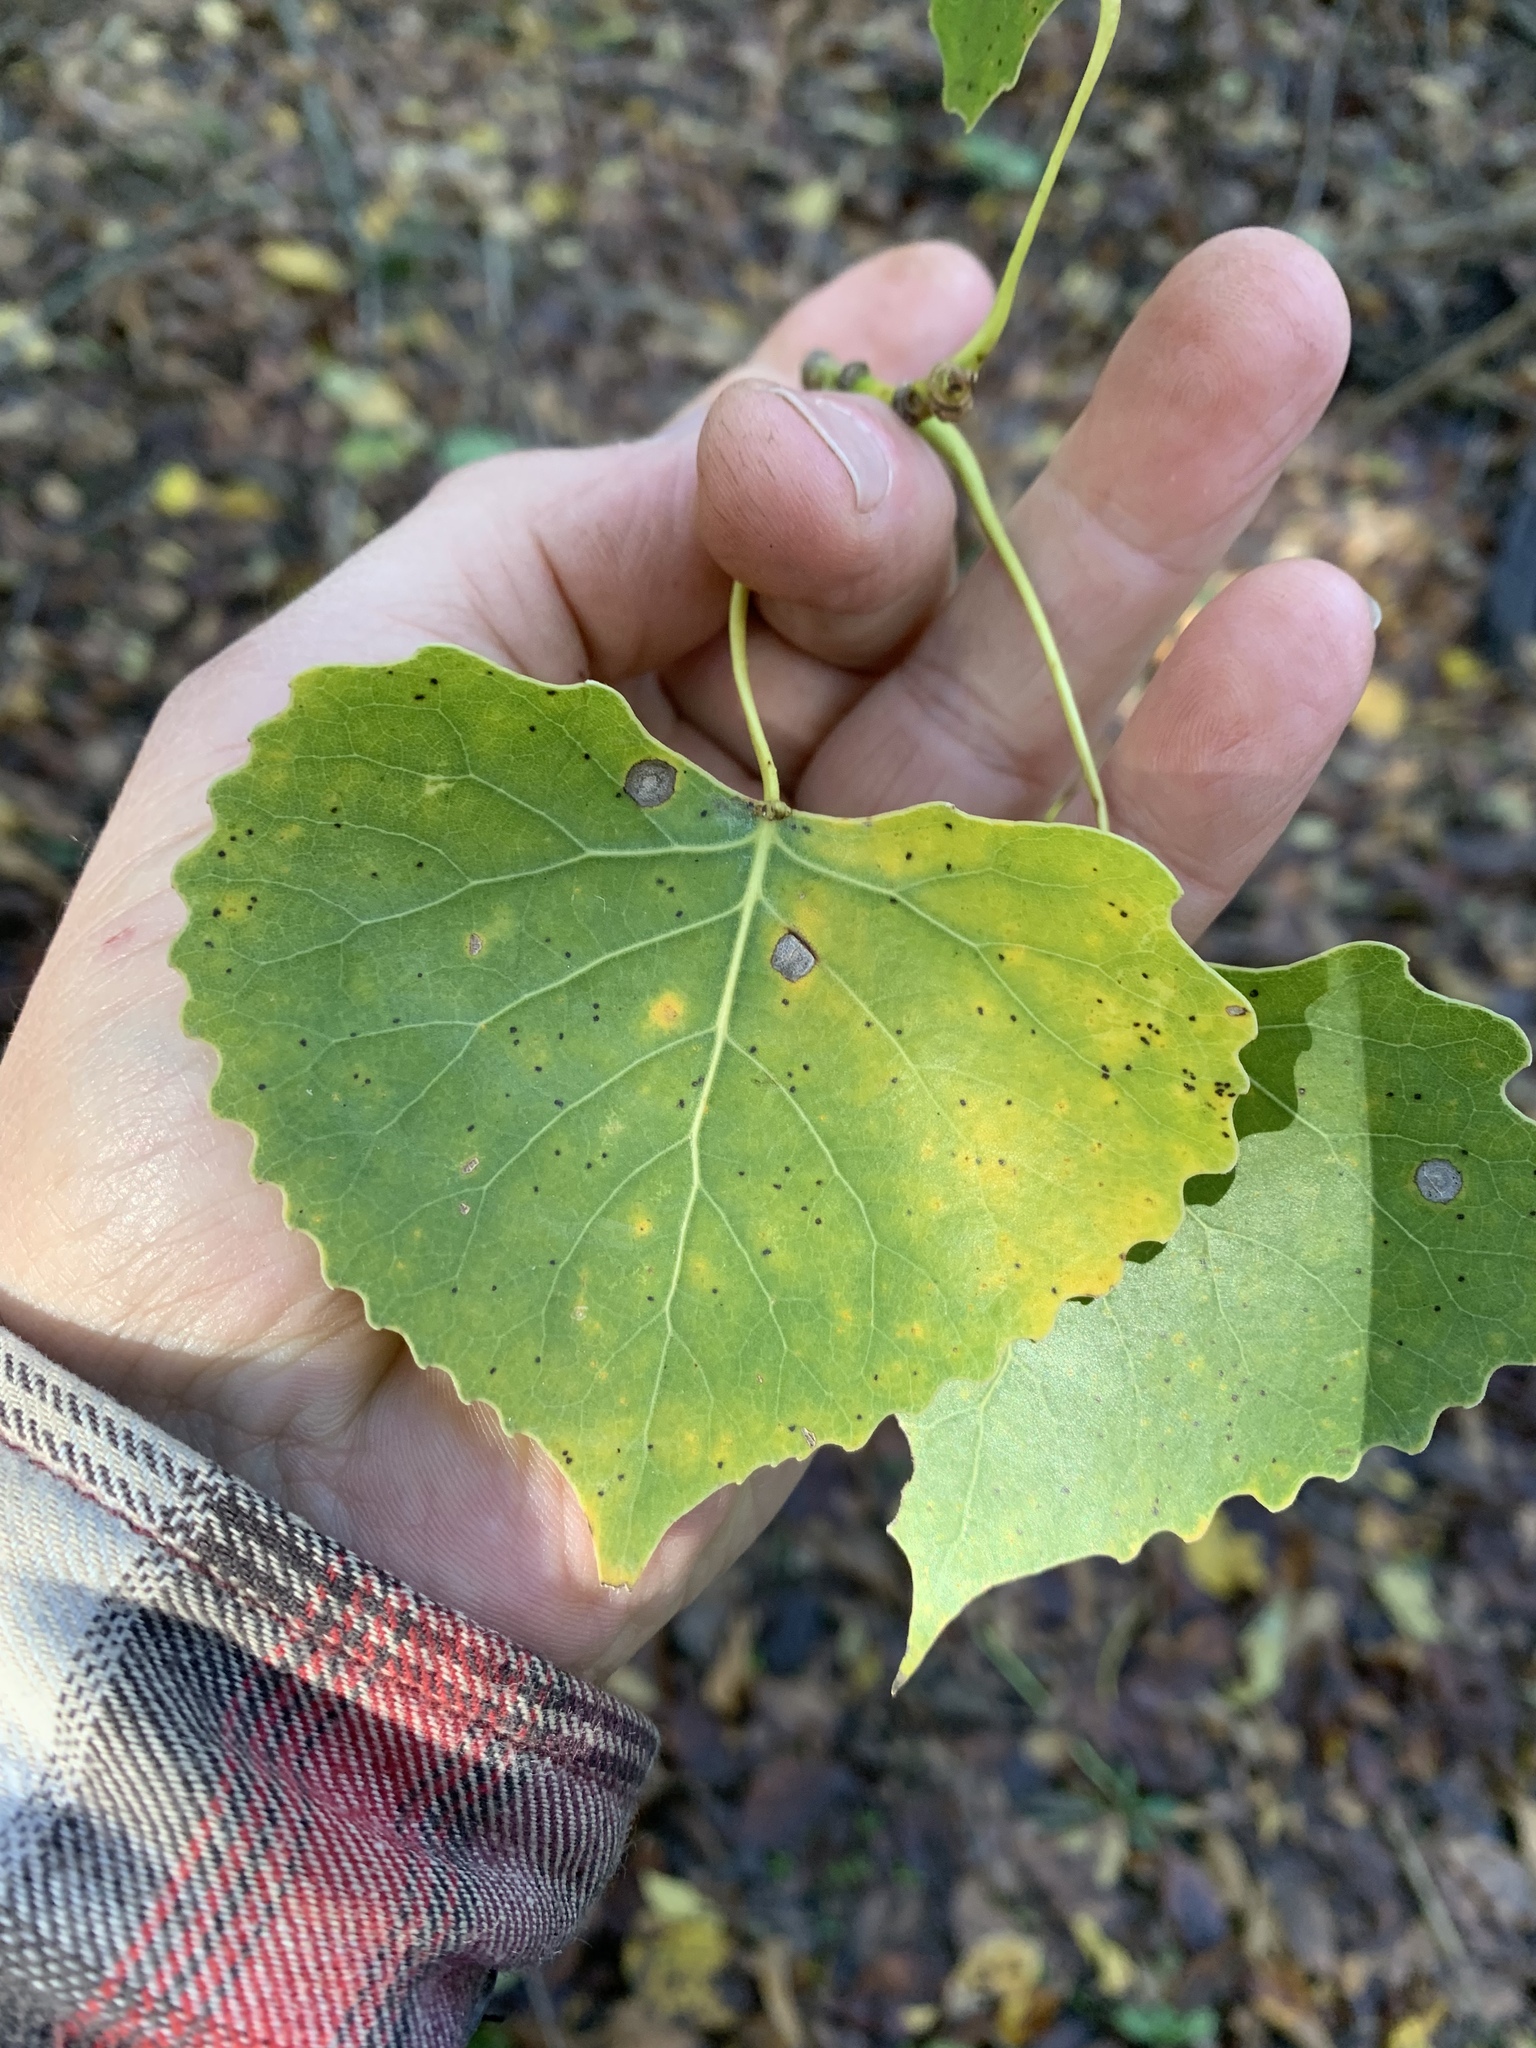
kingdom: Plantae
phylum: Tracheophyta
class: Magnoliopsida
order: Malpighiales
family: Salicaceae
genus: Populus
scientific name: Populus deltoides
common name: Eastern cottonwood
